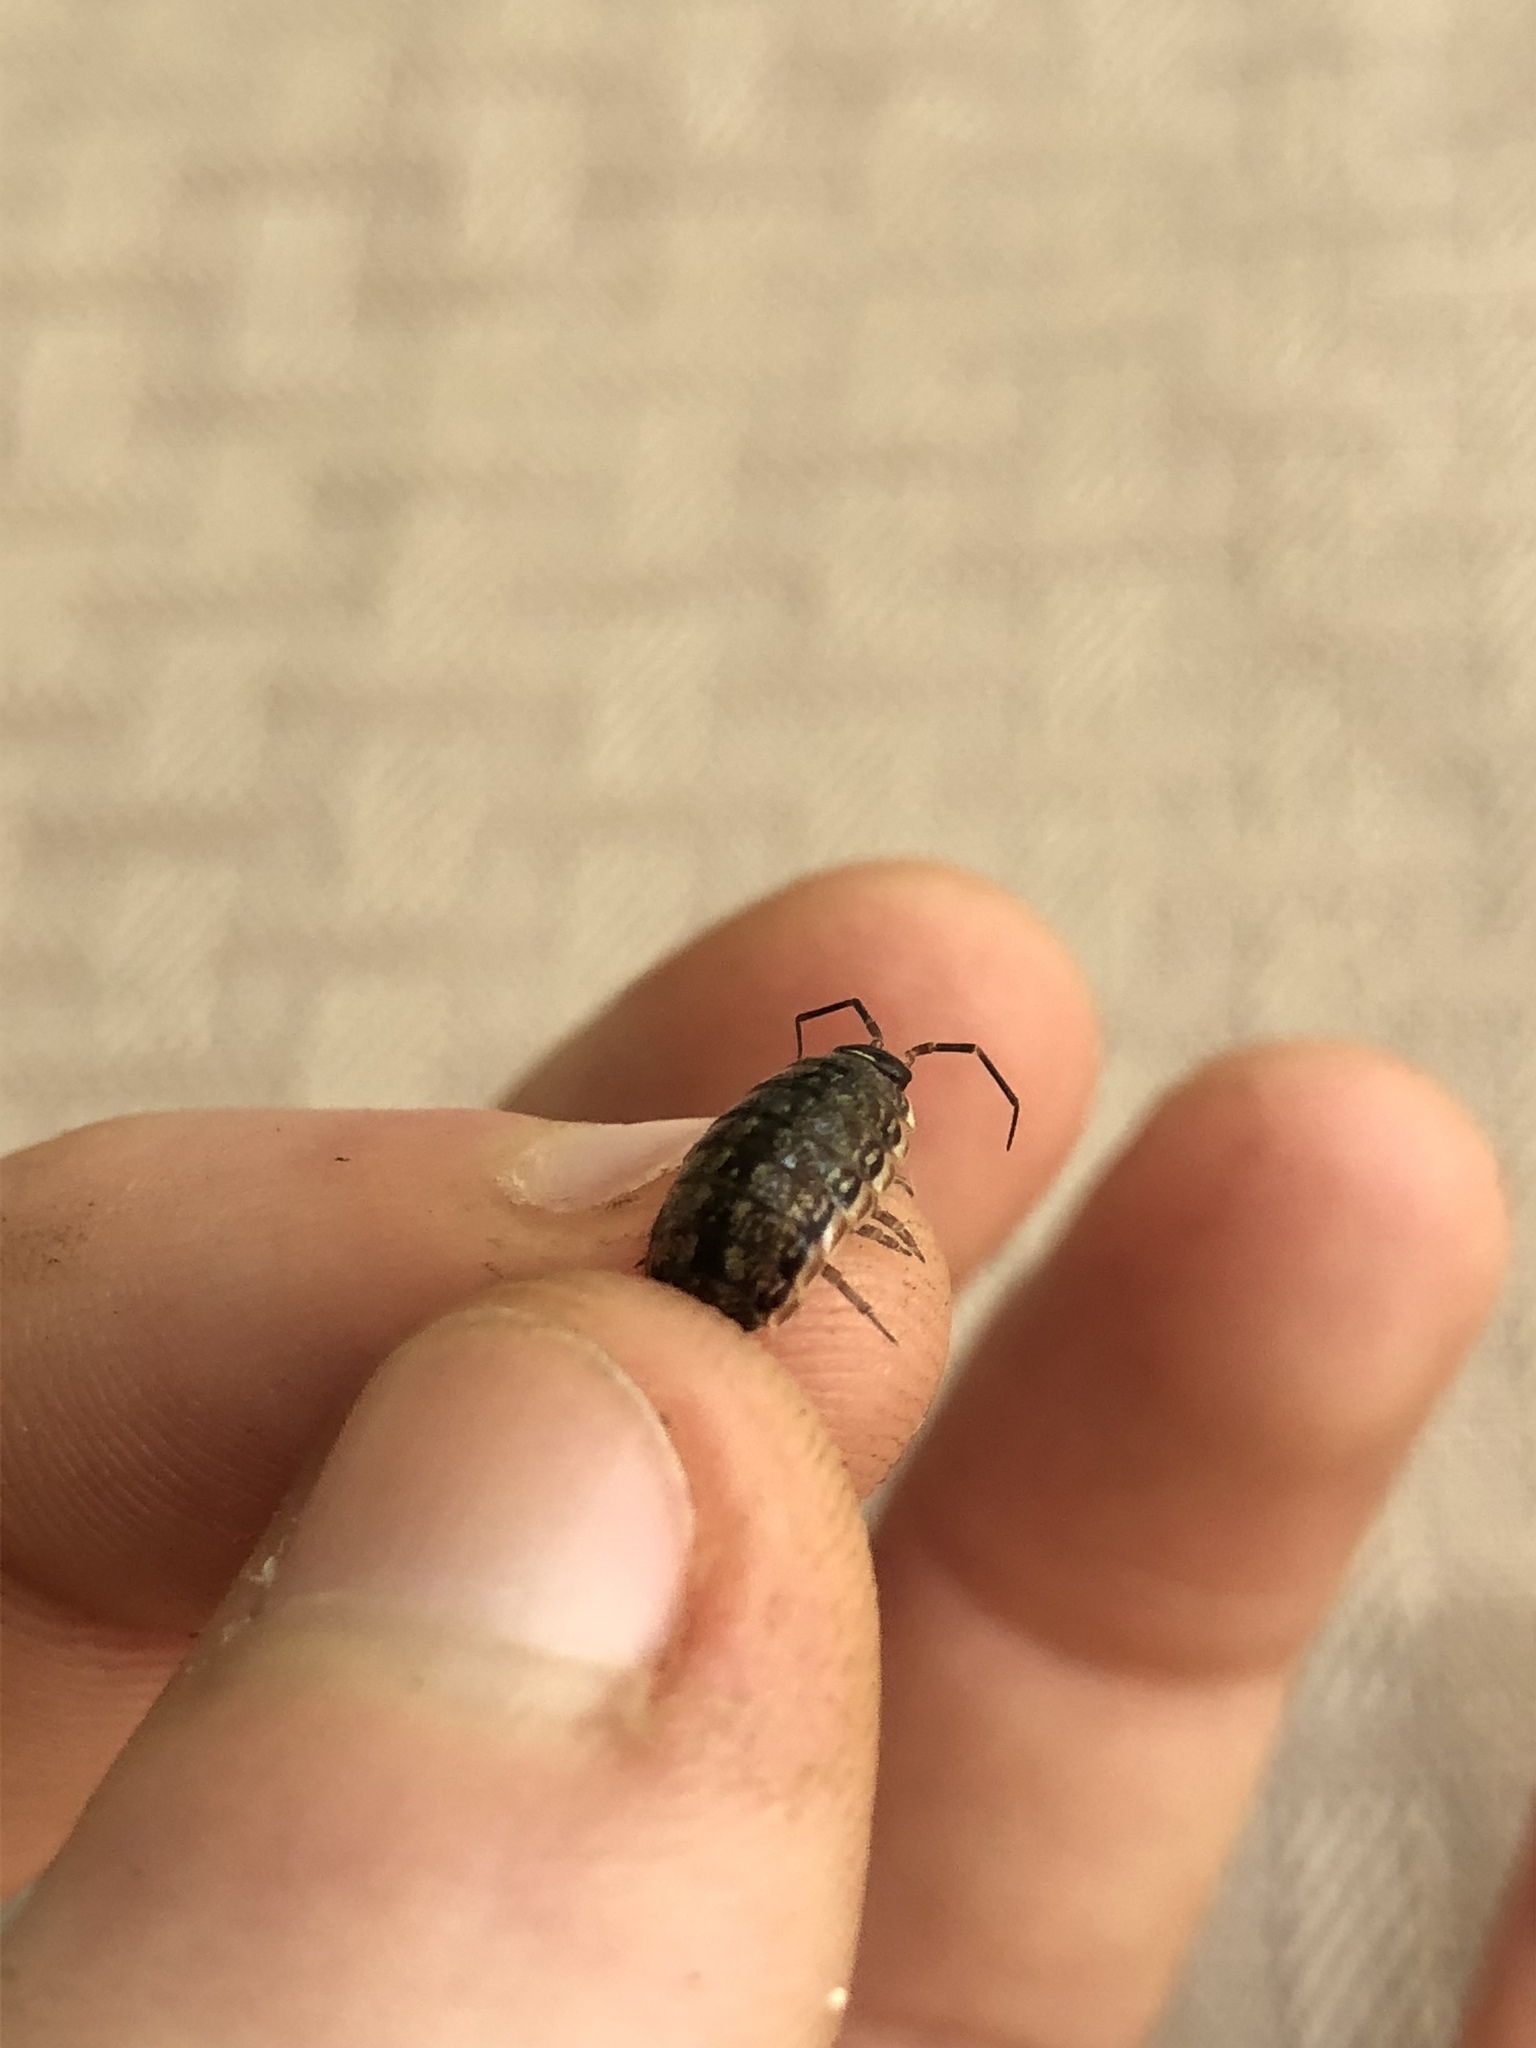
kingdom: Animalia
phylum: Arthropoda
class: Malacostraca
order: Isopoda
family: Philosciidae
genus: Philoscia
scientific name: Philoscia muscorum
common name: Common striped woodlouse
